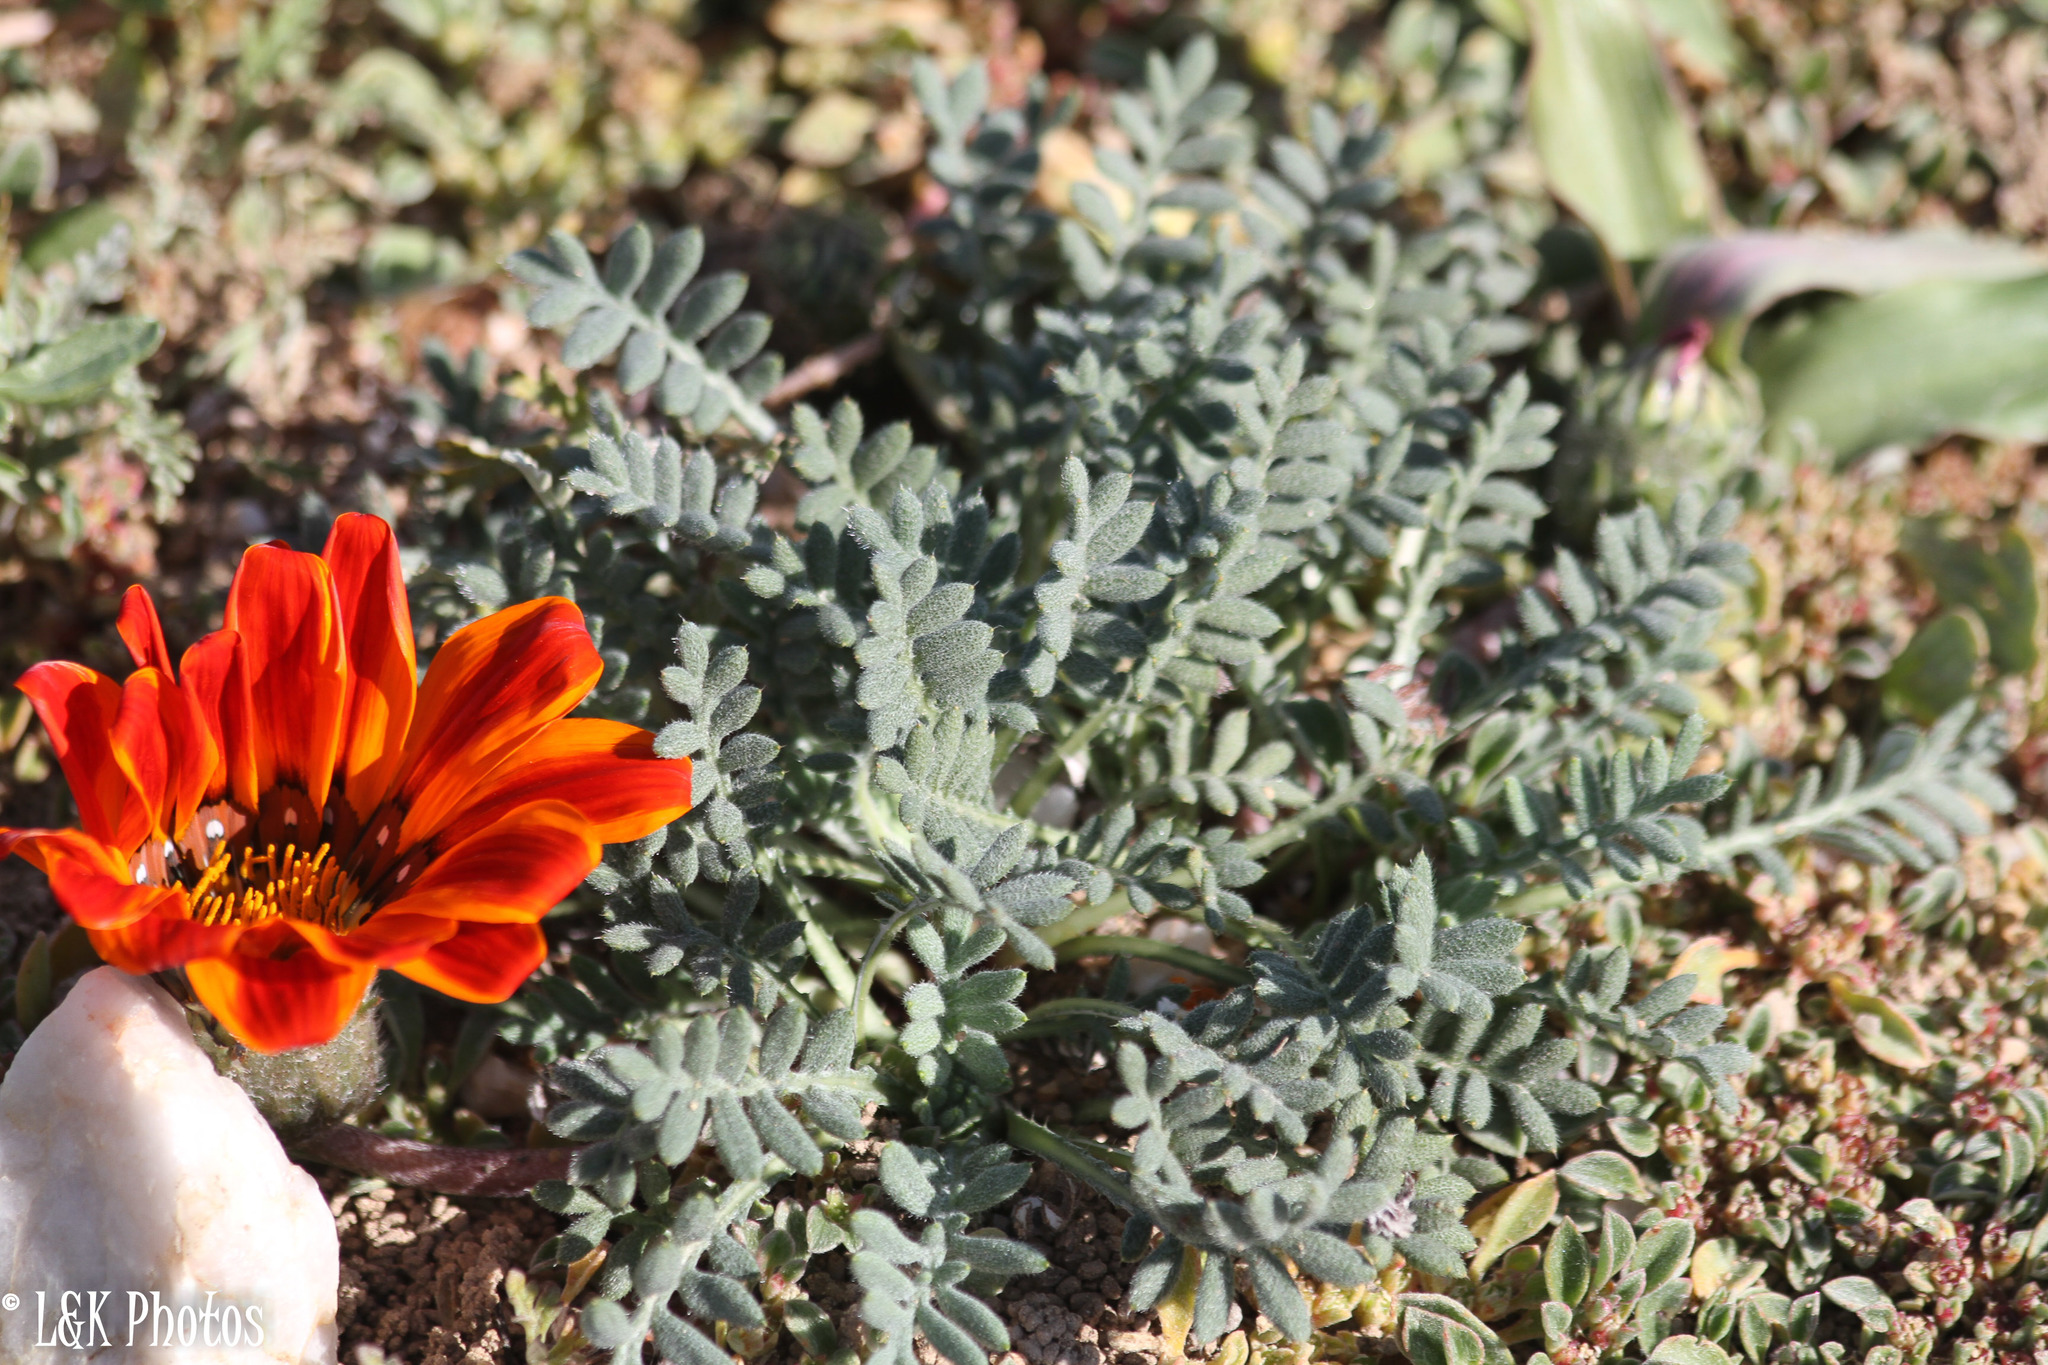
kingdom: Plantae
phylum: Tracheophyta
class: Magnoliopsida
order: Asterales
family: Asteraceae
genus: Gazania
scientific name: Gazania leiopoda
